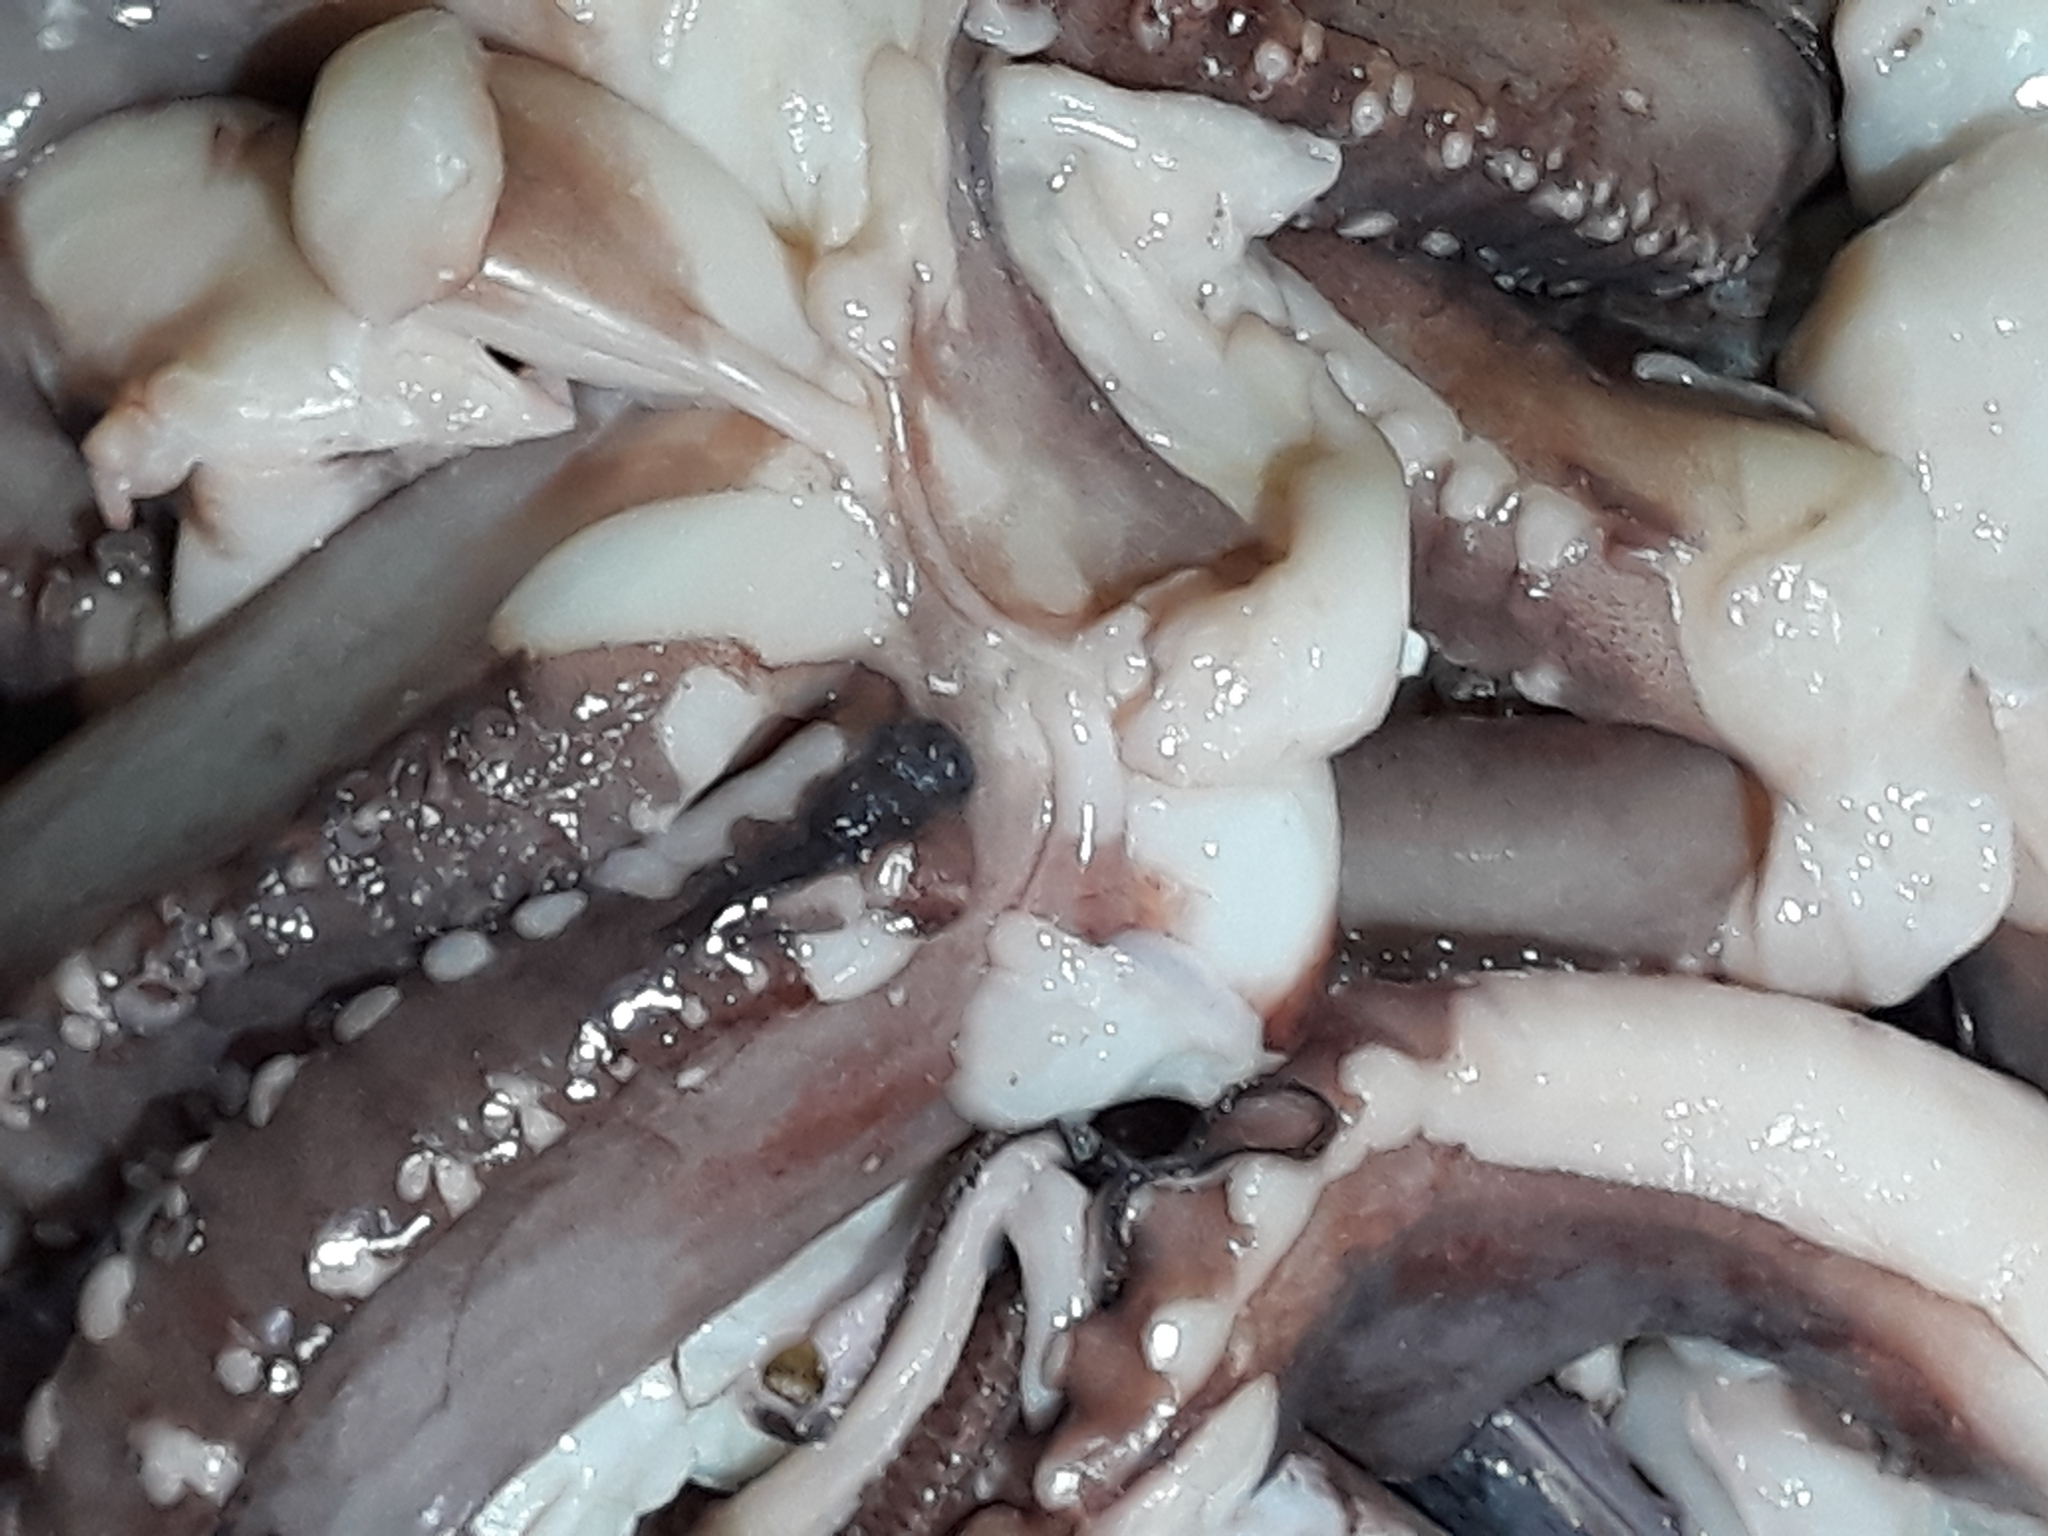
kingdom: Animalia
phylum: Mollusca
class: Cephalopoda
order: Oegopsida
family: Ommastrephidae
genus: Dosidicus
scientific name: Dosidicus gigas
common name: Humboldt squid
